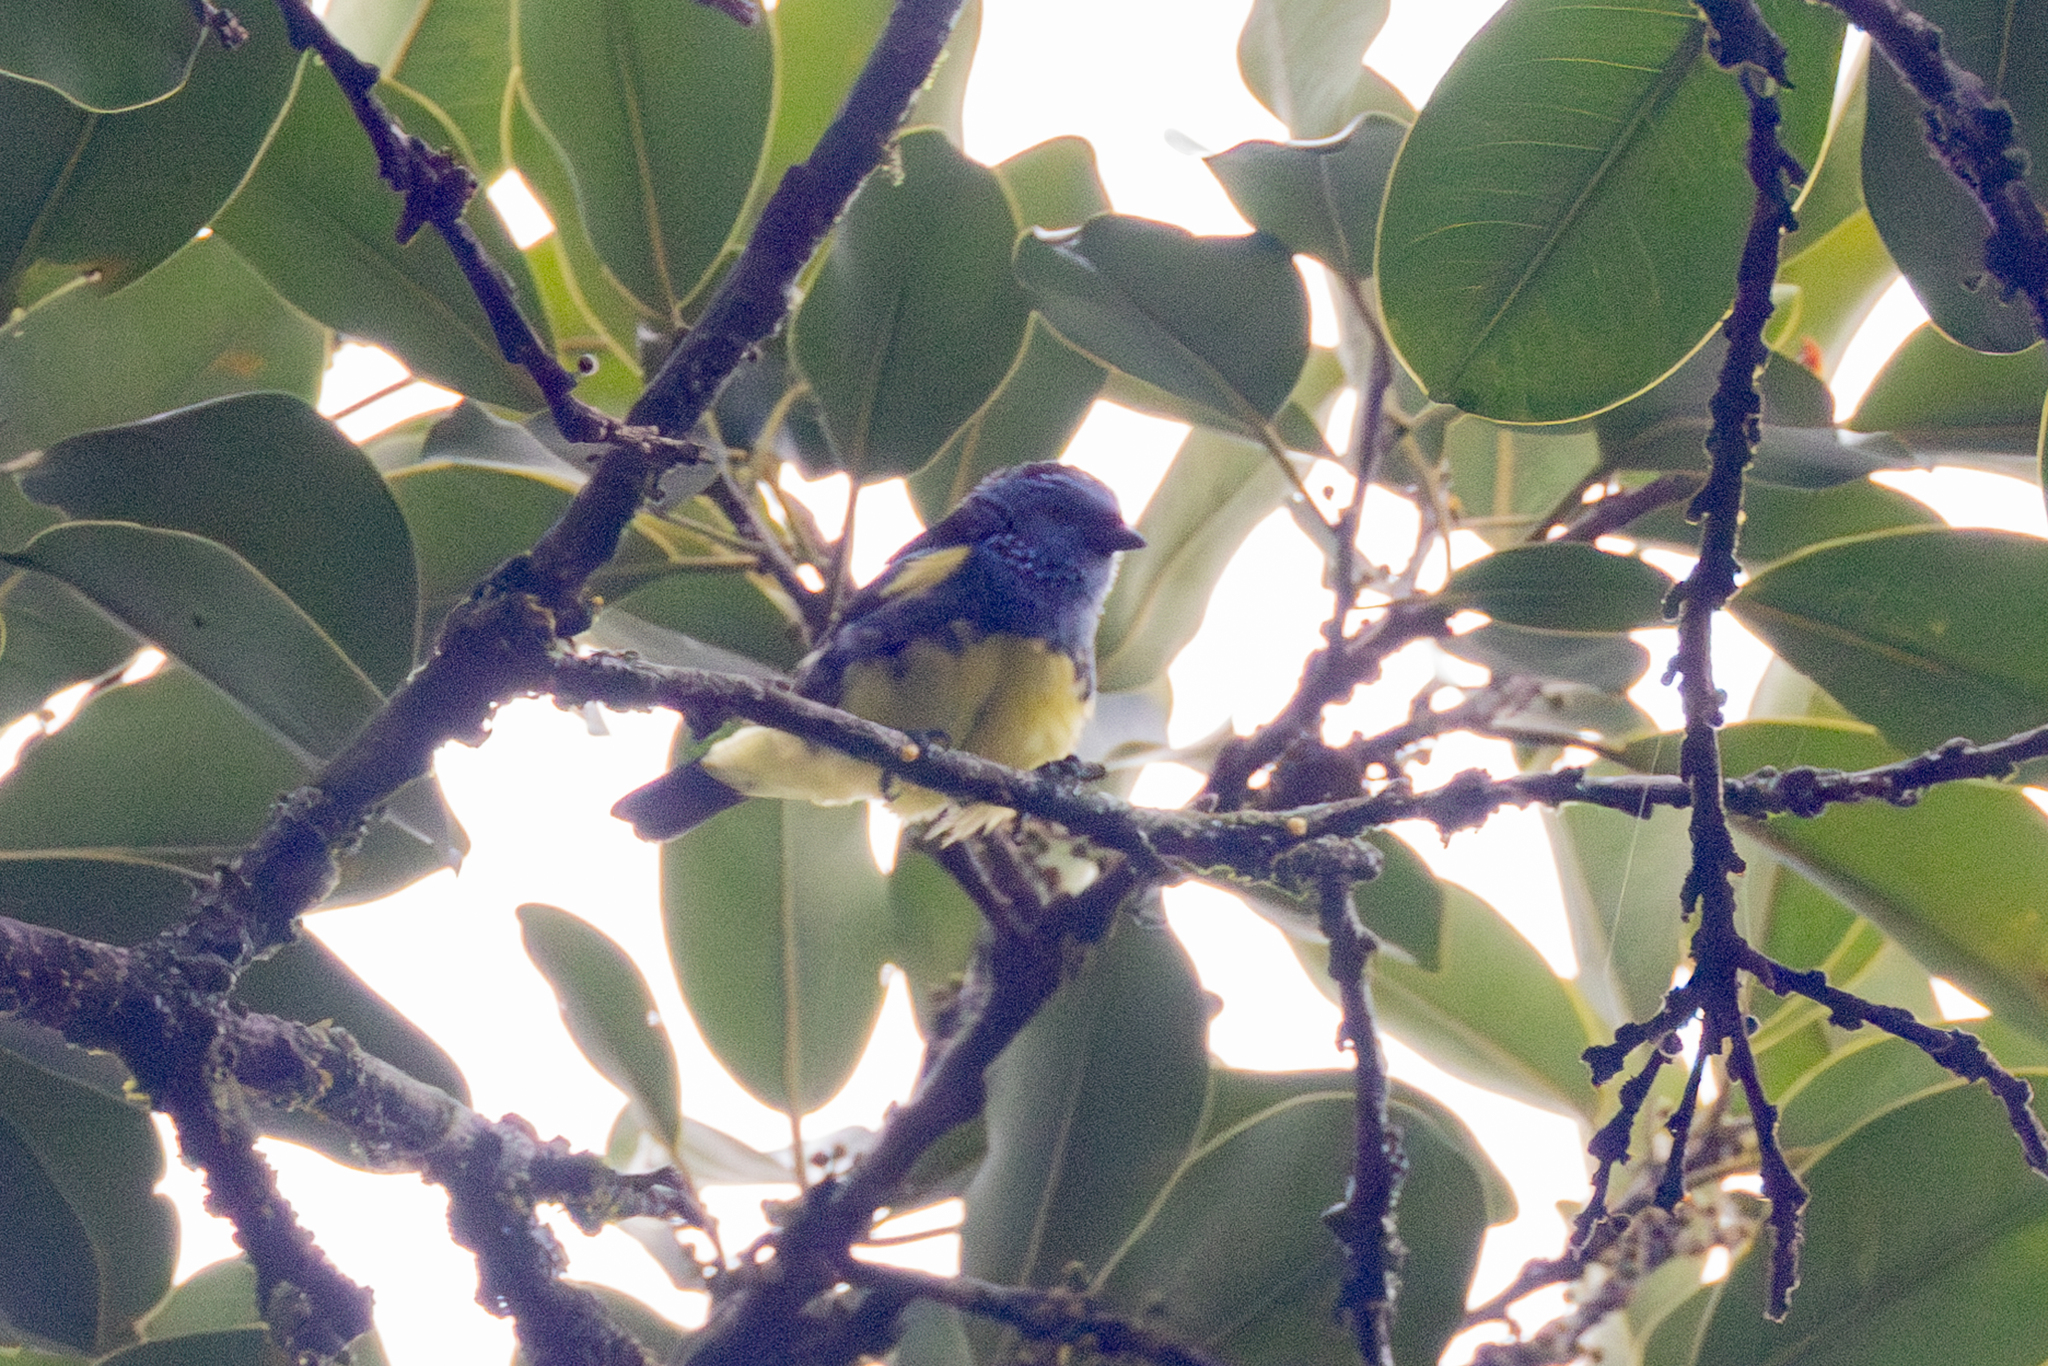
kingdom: Animalia
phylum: Chordata
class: Aves
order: Passeriformes
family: Thraupidae
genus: Tangara
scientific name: Tangara mexicana
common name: Turquoise tanager
